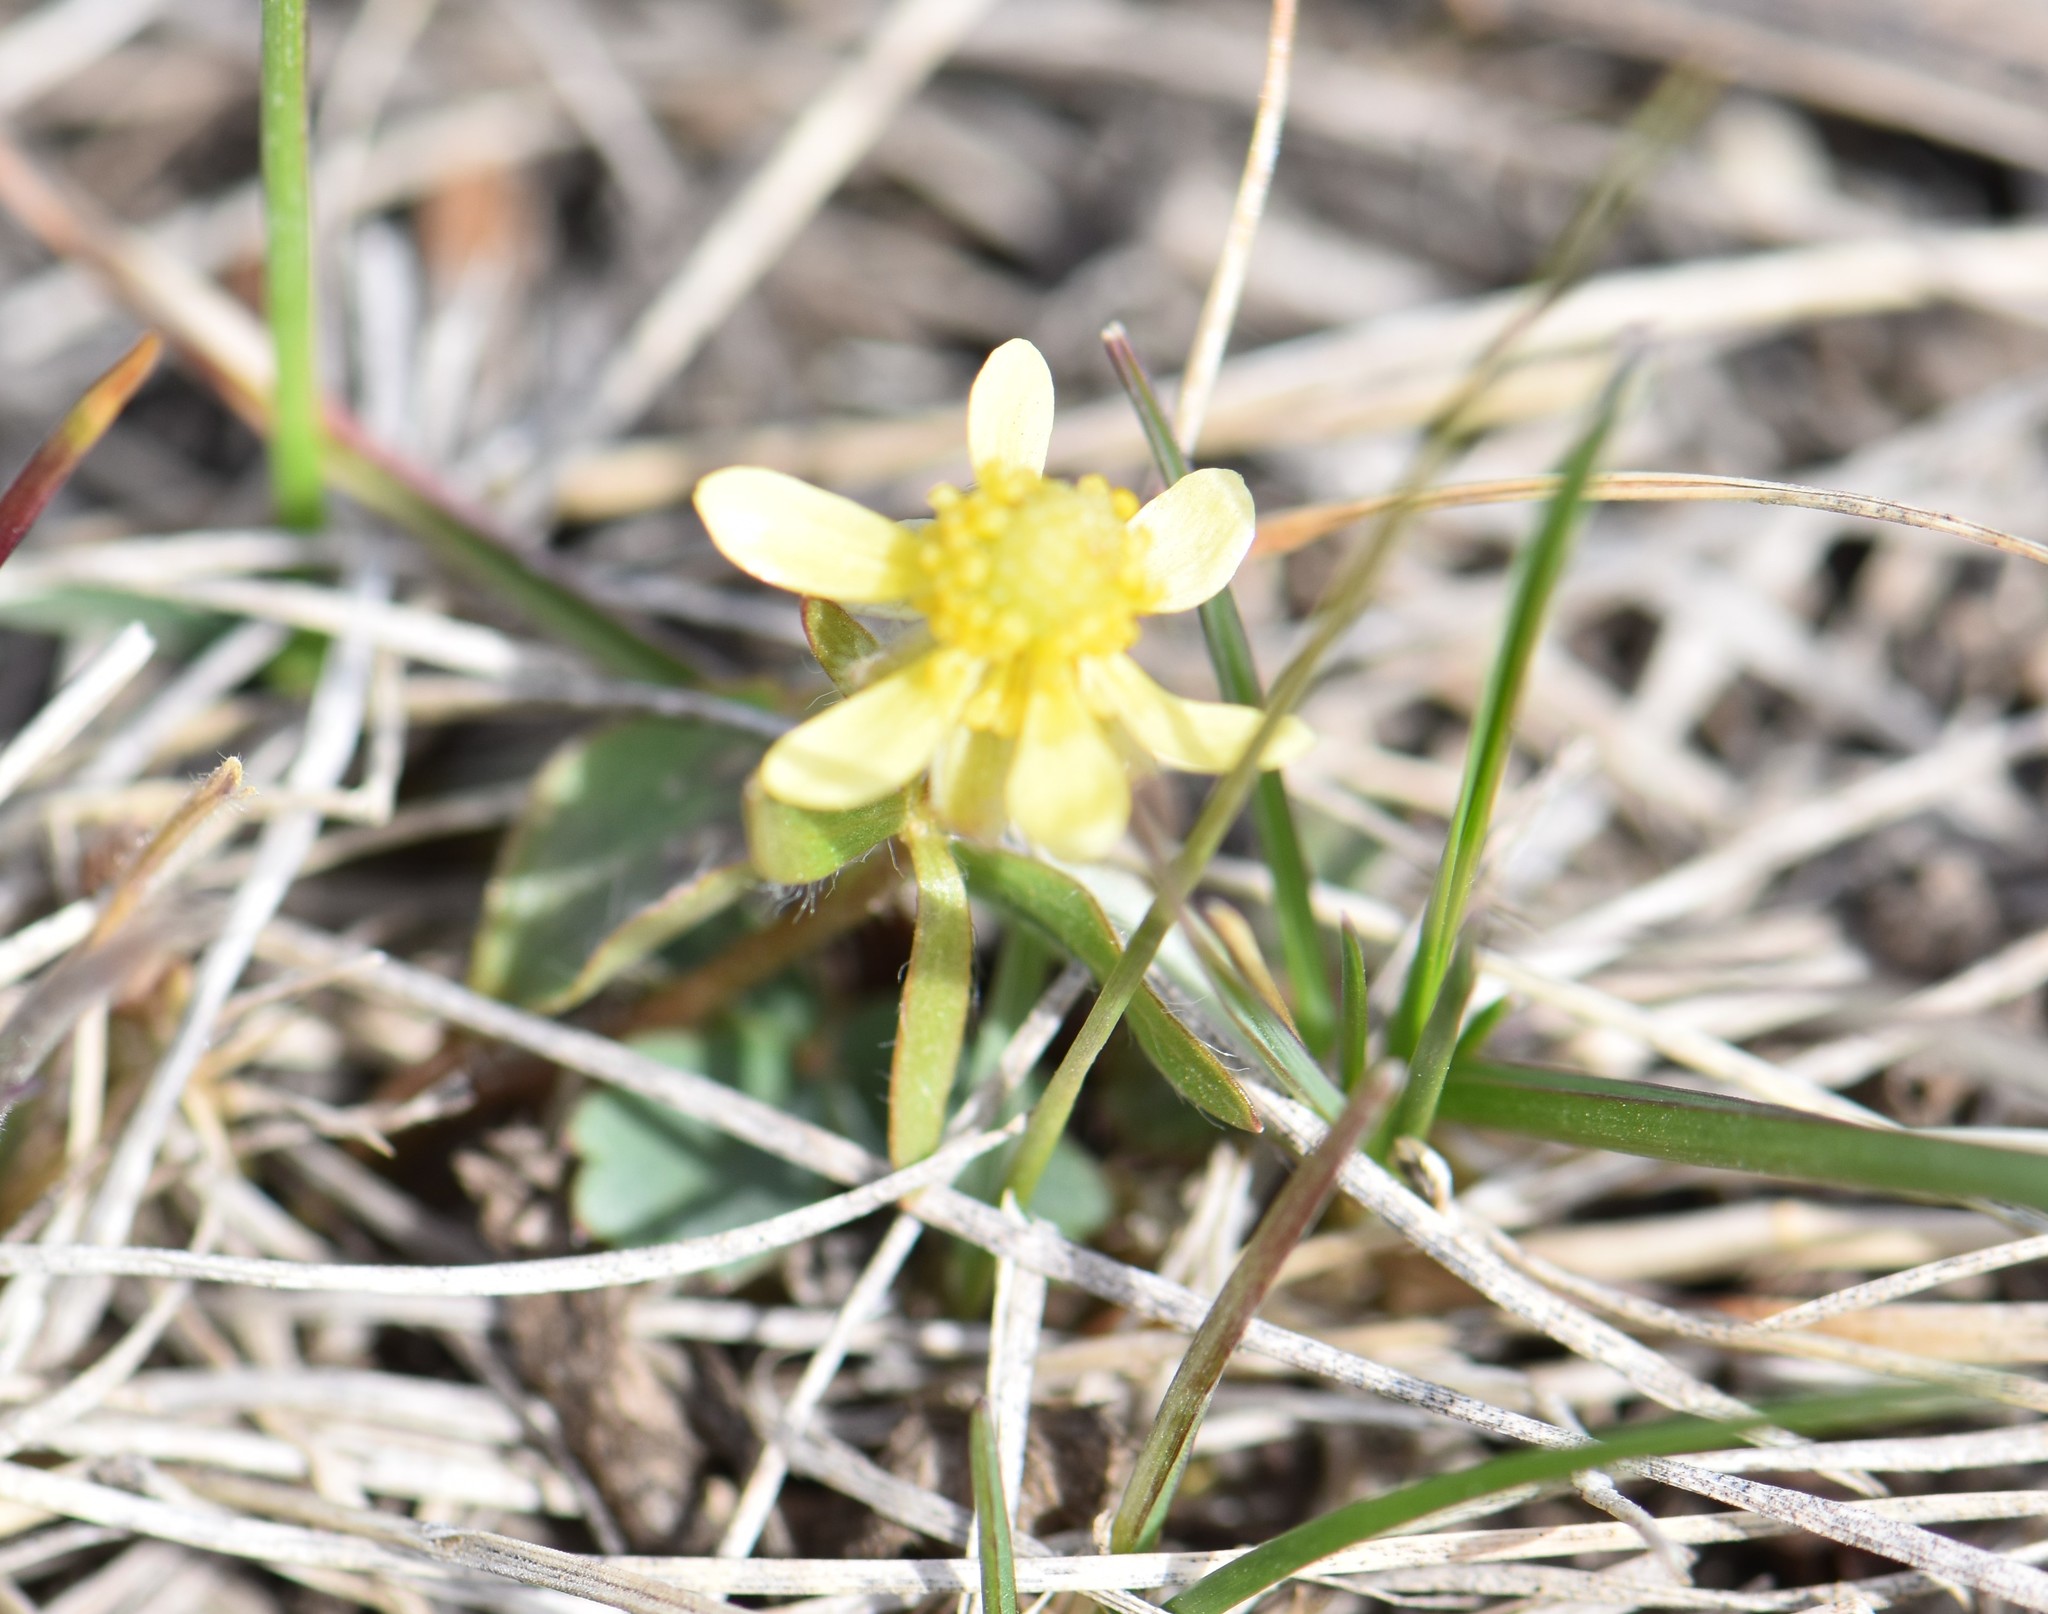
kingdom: Plantae
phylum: Tracheophyta
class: Magnoliopsida
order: Ranunculales
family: Ranunculaceae
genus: Ranunculus
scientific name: Ranunculus rhomboideus
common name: Prairie buttercup
